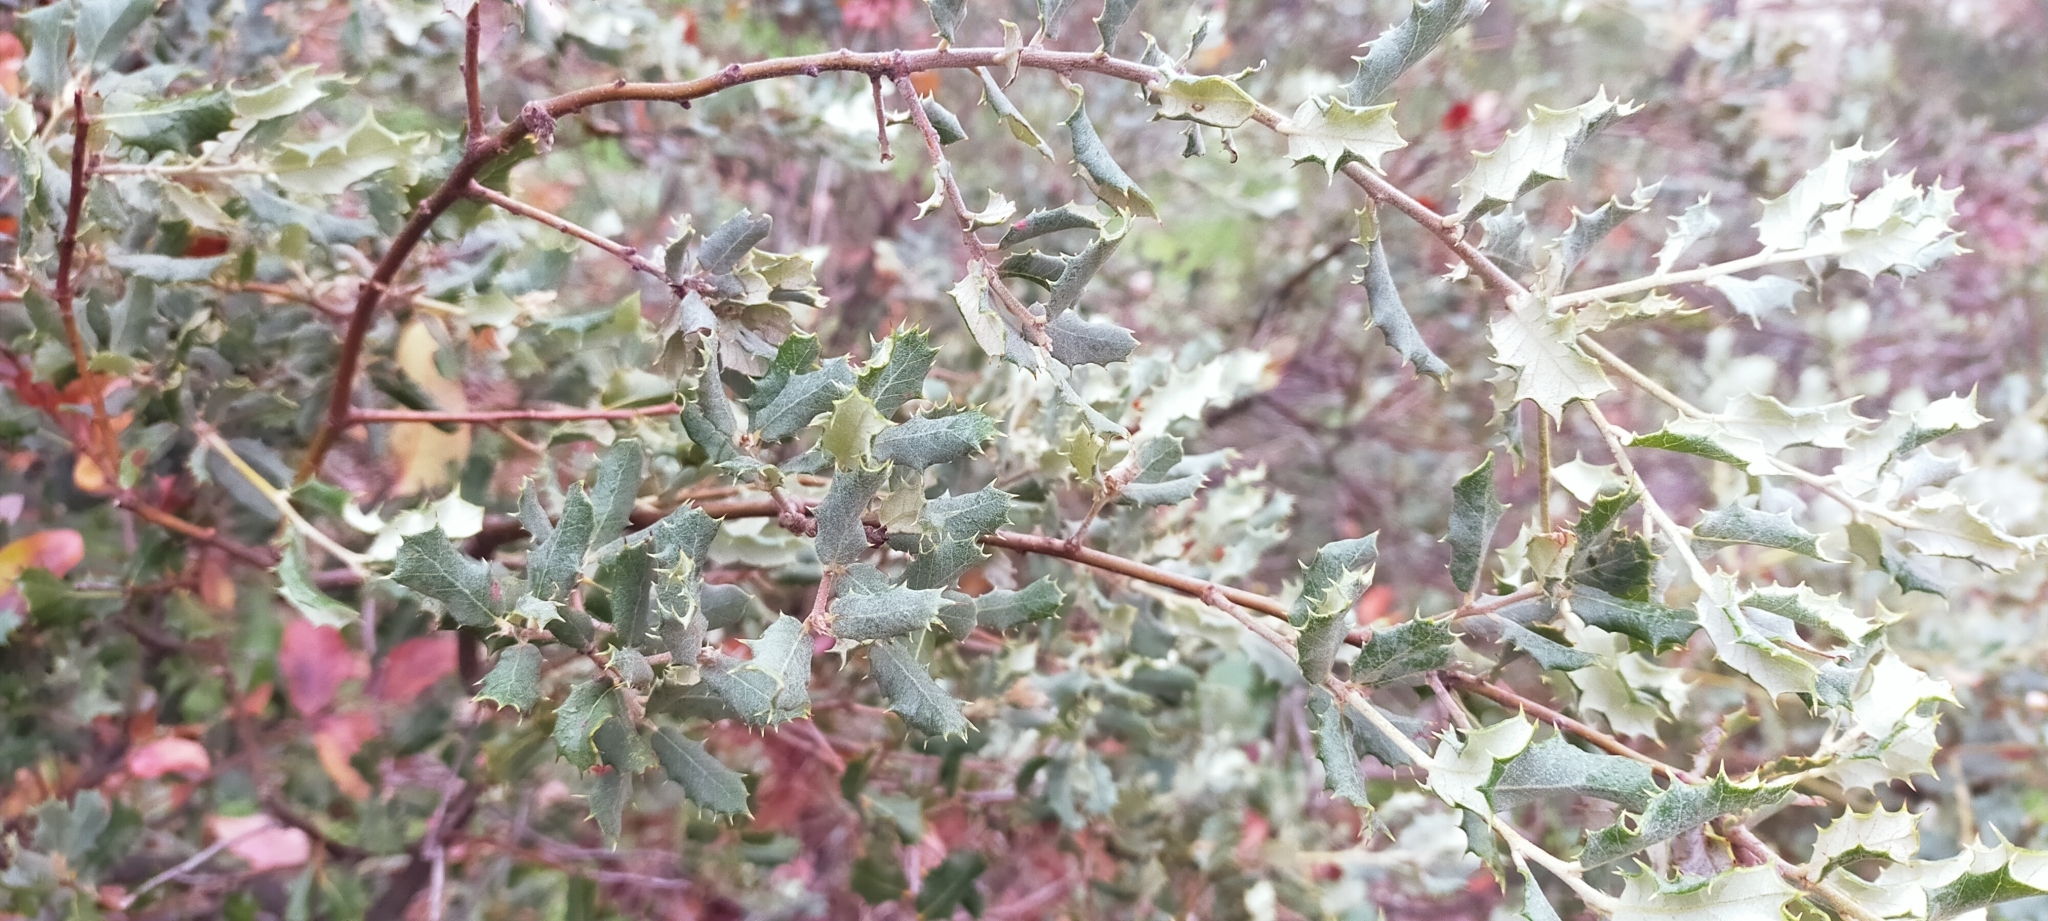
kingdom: Plantae
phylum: Tracheophyta
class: Magnoliopsida
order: Fagales
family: Fagaceae
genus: Quercus
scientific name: Quercus rotundifolia
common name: Holm oak
